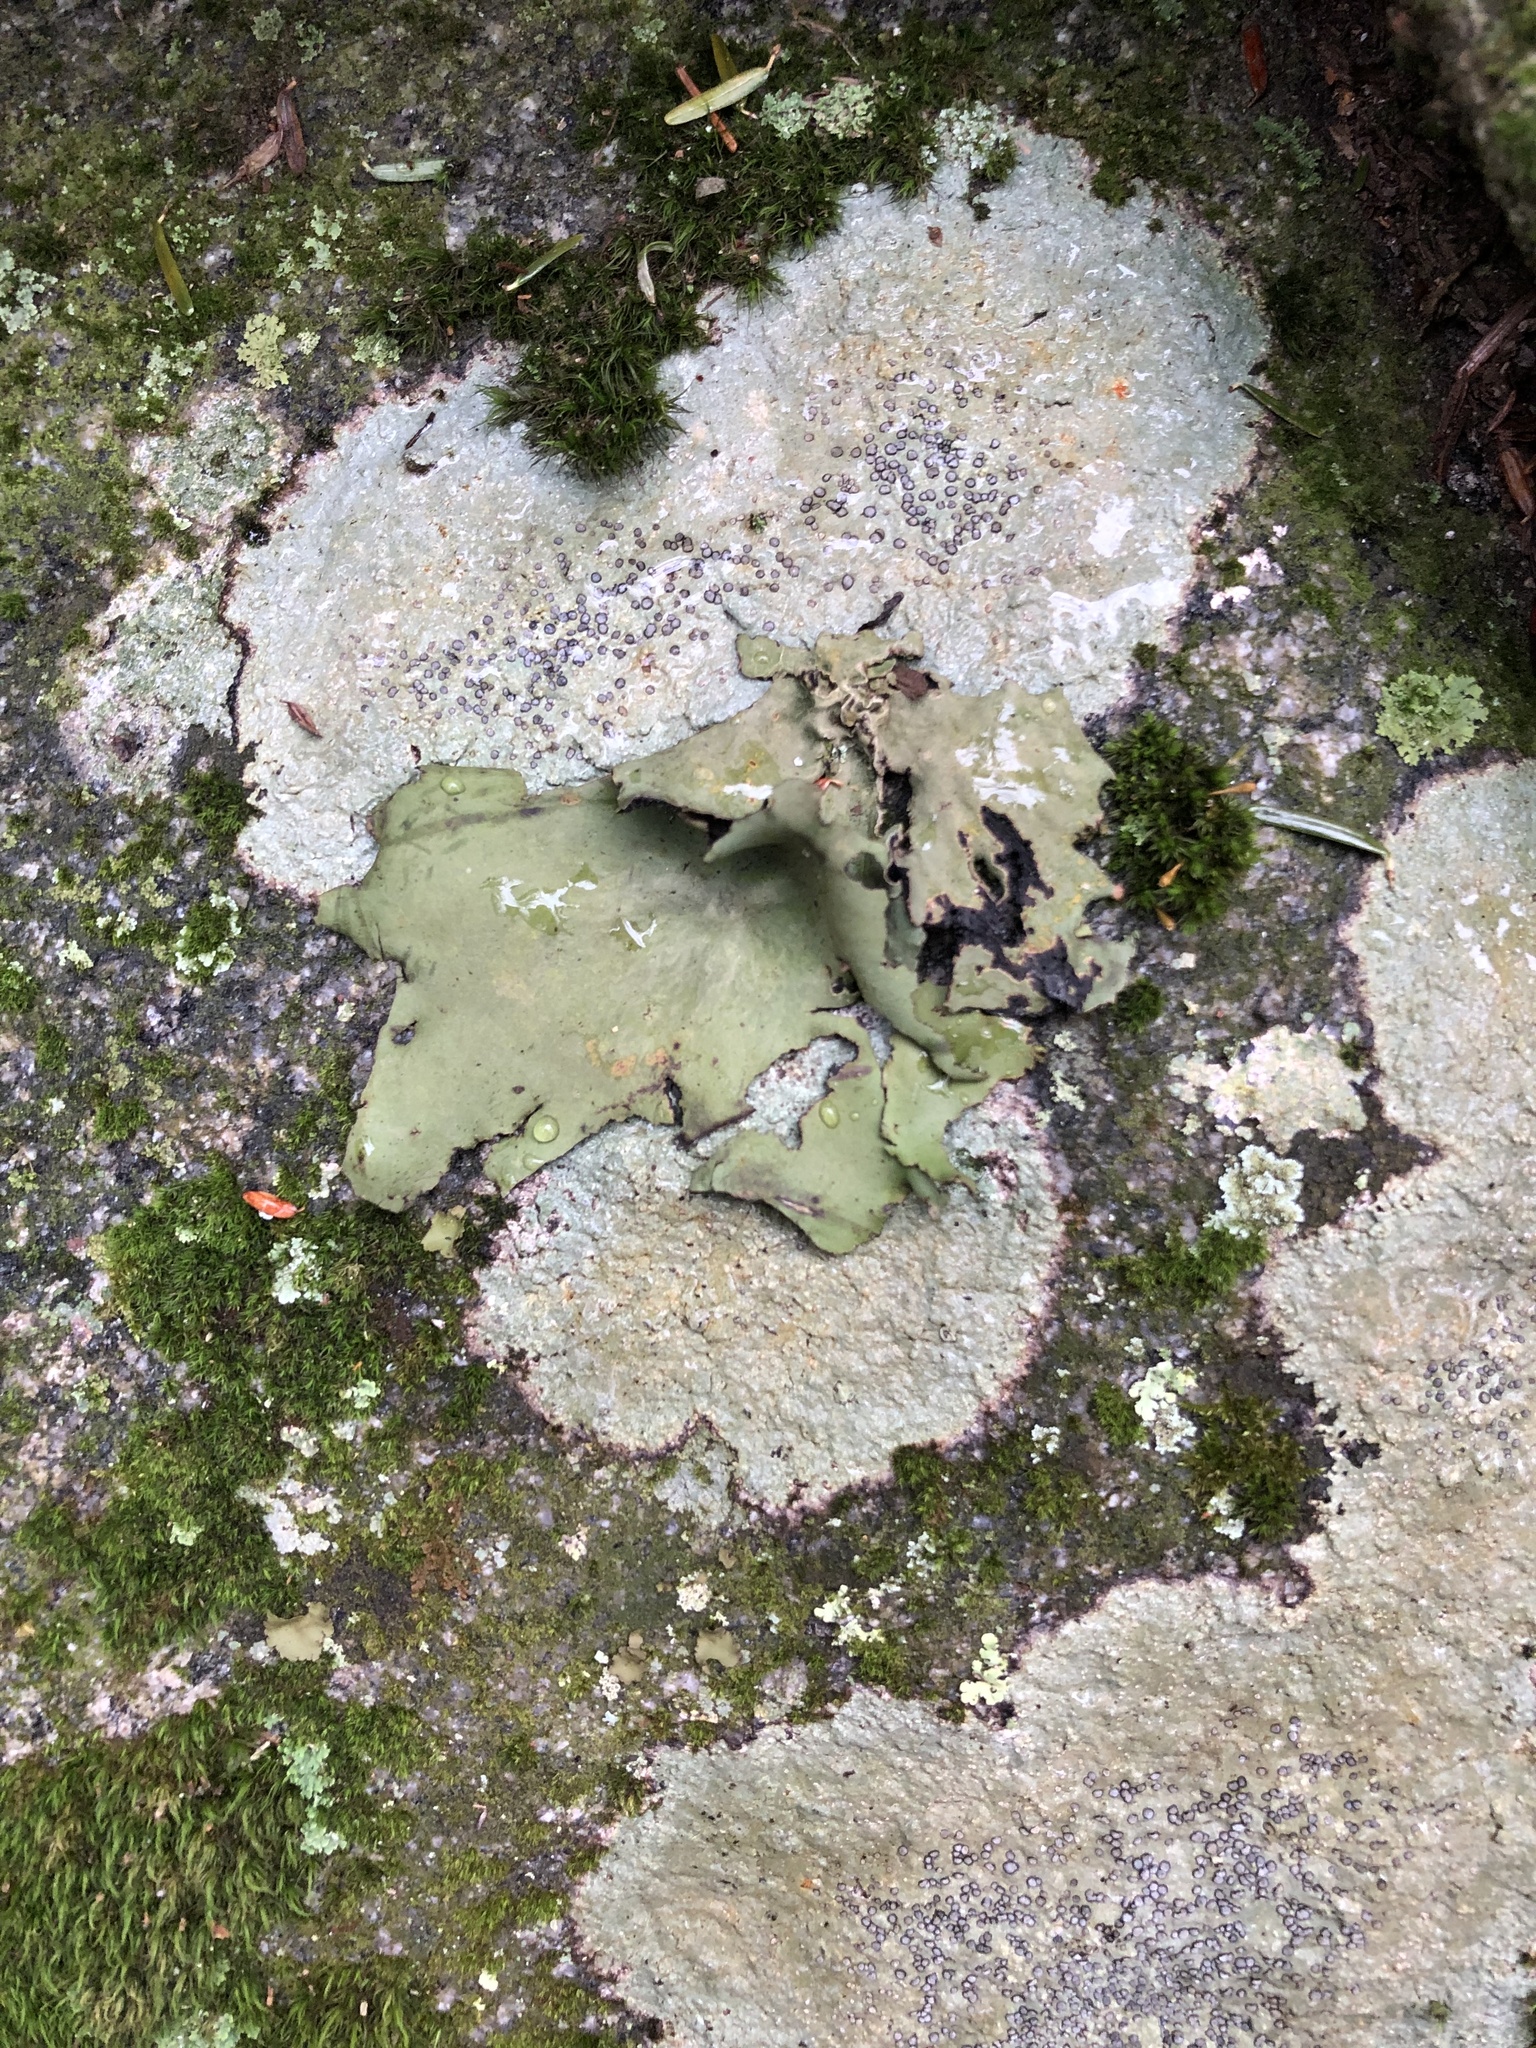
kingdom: Fungi
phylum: Ascomycota
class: Lecanoromycetes
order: Umbilicariales
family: Umbilicariaceae
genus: Umbilicaria
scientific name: Umbilicaria mammulata
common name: Smooth rock tripe
